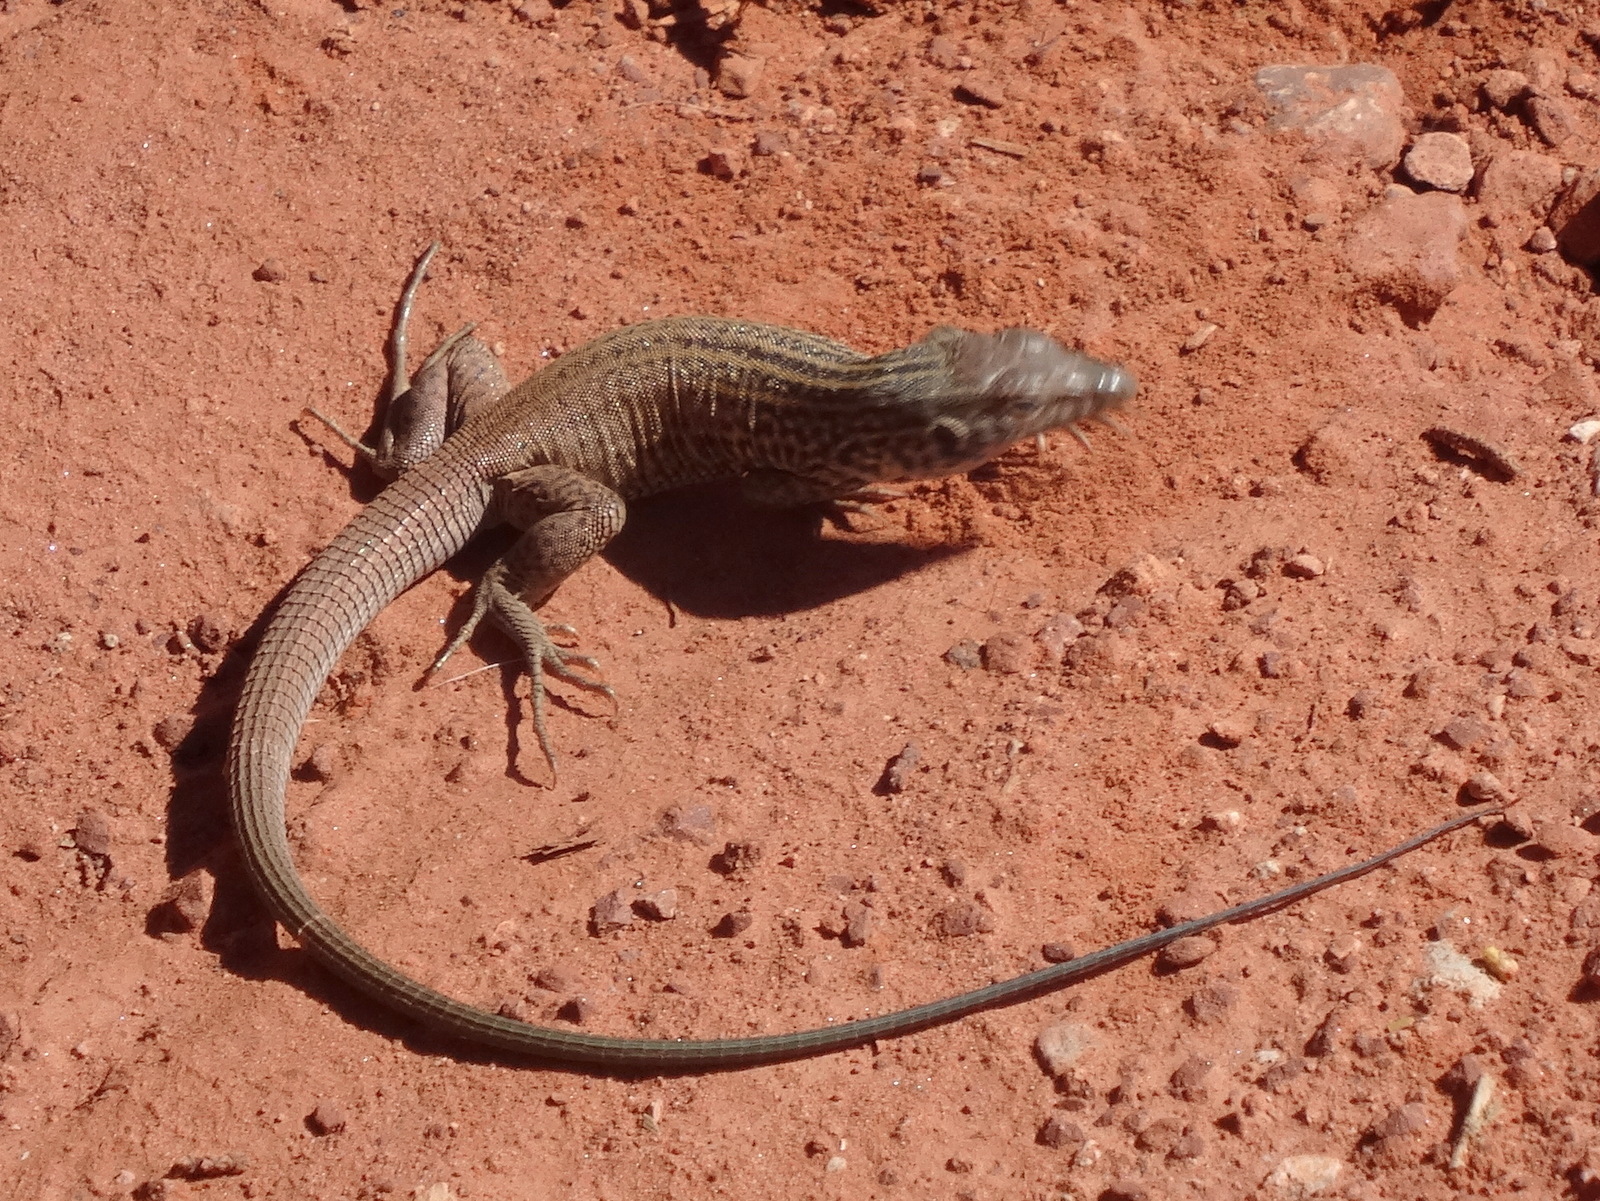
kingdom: Animalia
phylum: Chordata
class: Squamata
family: Teiidae
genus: Aspidoscelis
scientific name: Aspidoscelis tigris
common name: Tiger whiptail
